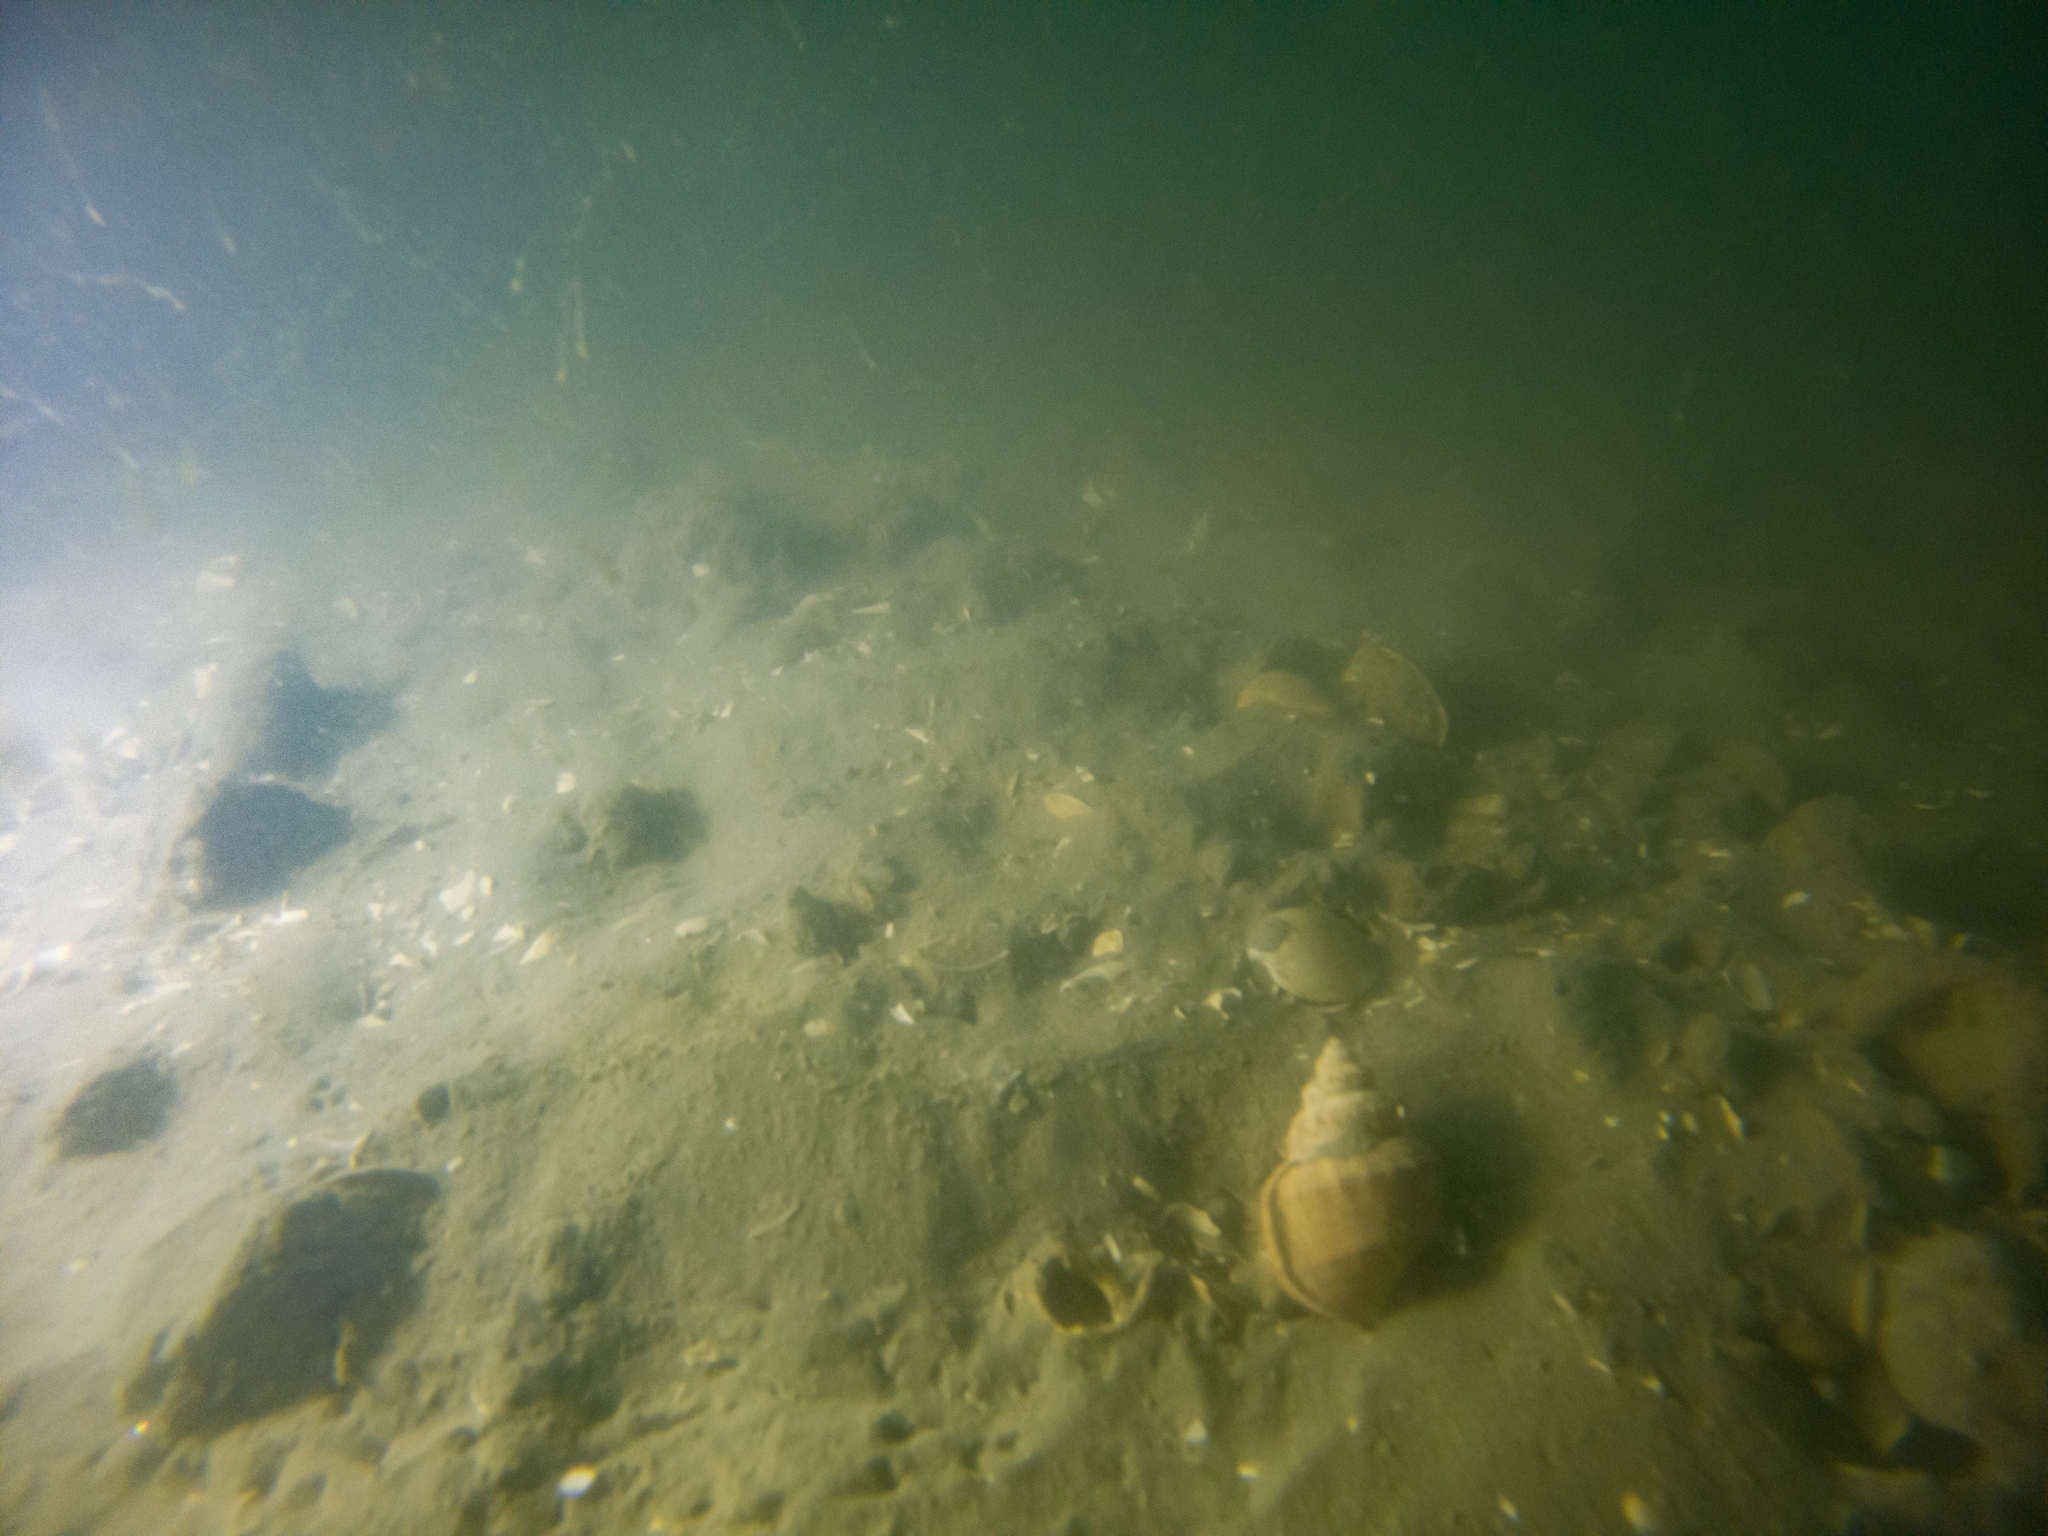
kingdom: Animalia
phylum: Mollusca
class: Gastropoda
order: Littorinimorpha
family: Struthiolariidae
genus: Pelicaria
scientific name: Pelicaria vermis
